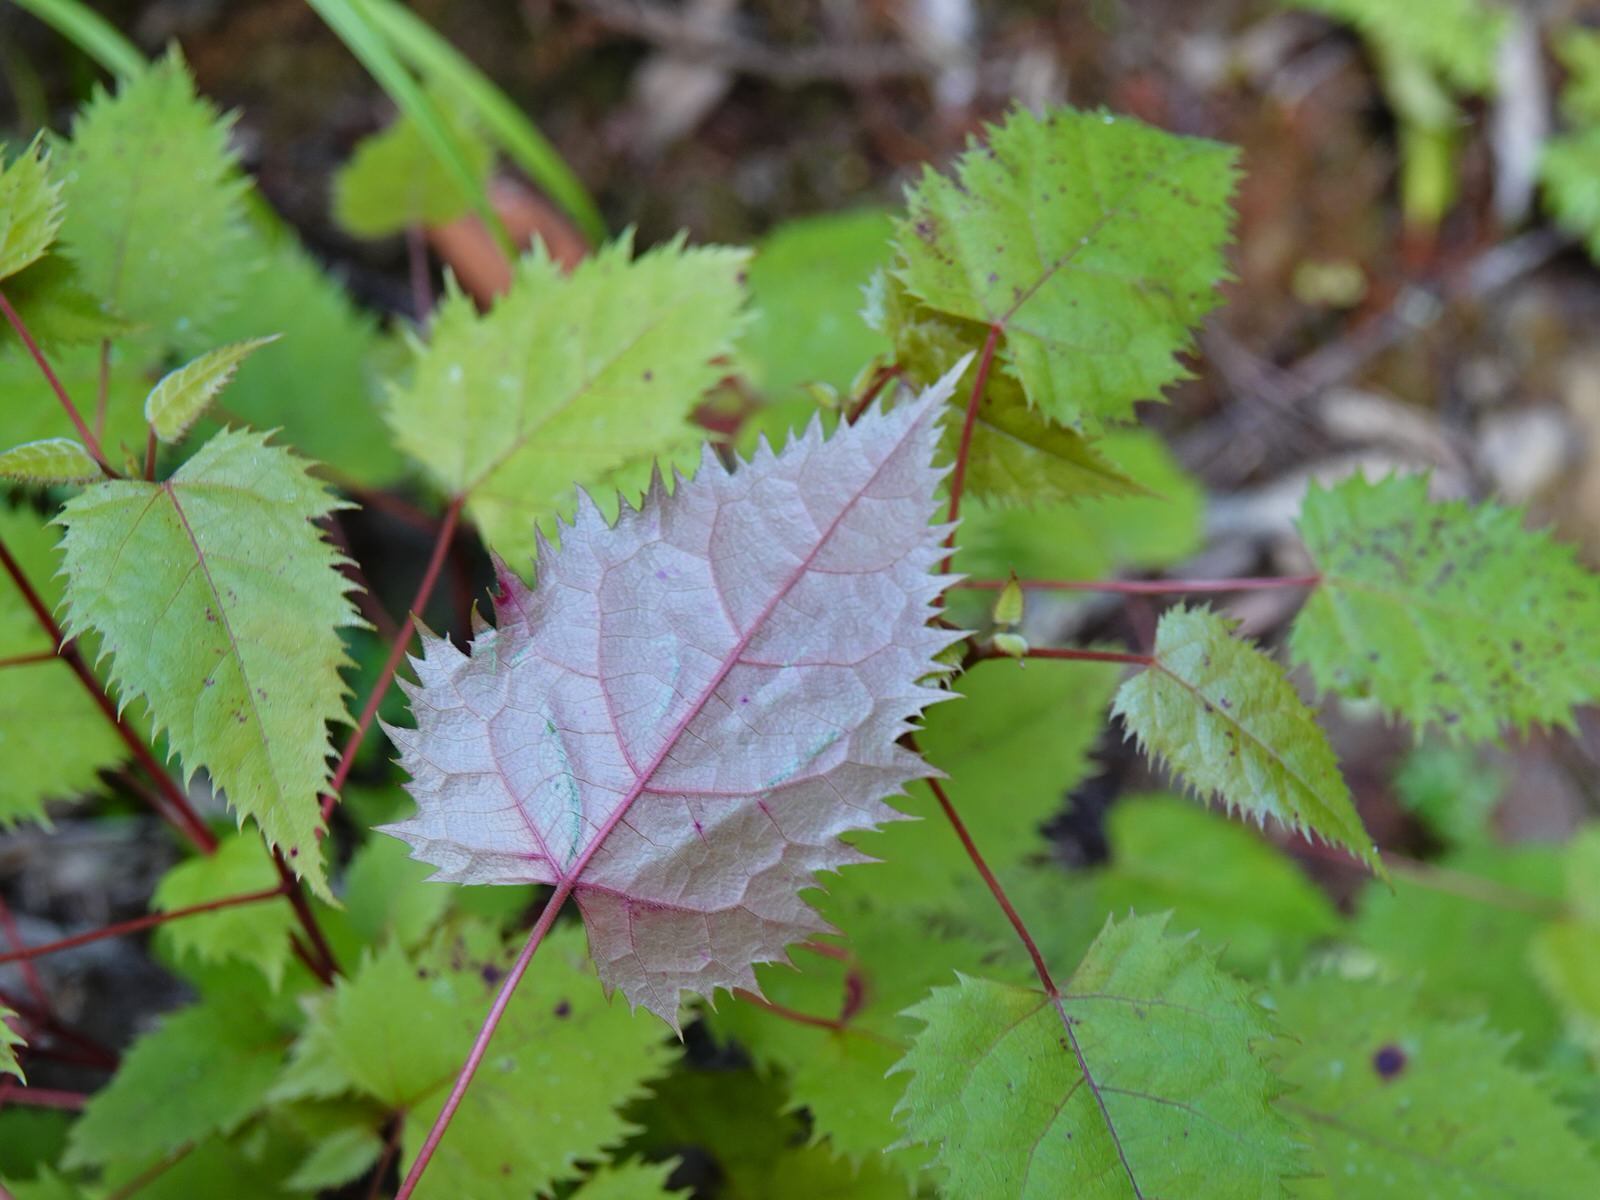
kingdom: Plantae
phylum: Tracheophyta
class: Magnoliopsida
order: Oxalidales
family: Elaeocarpaceae
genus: Aristotelia
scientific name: Aristotelia serrata
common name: New zealand wineberry
